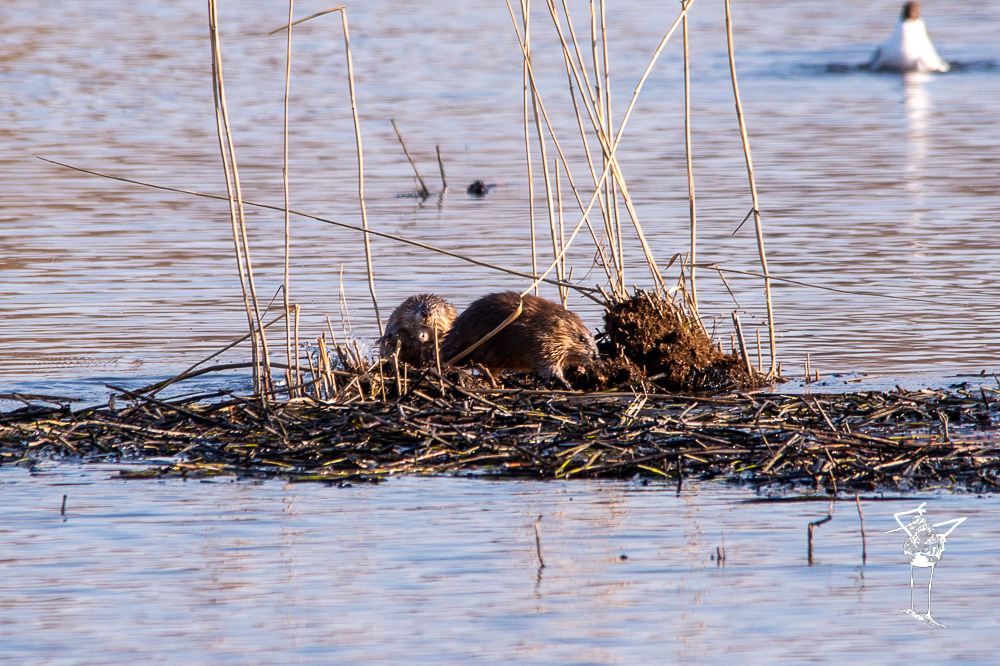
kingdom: Animalia
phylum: Chordata
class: Mammalia
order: Rodentia
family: Cricetidae
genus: Ondatra
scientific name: Ondatra zibethicus
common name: Muskrat
